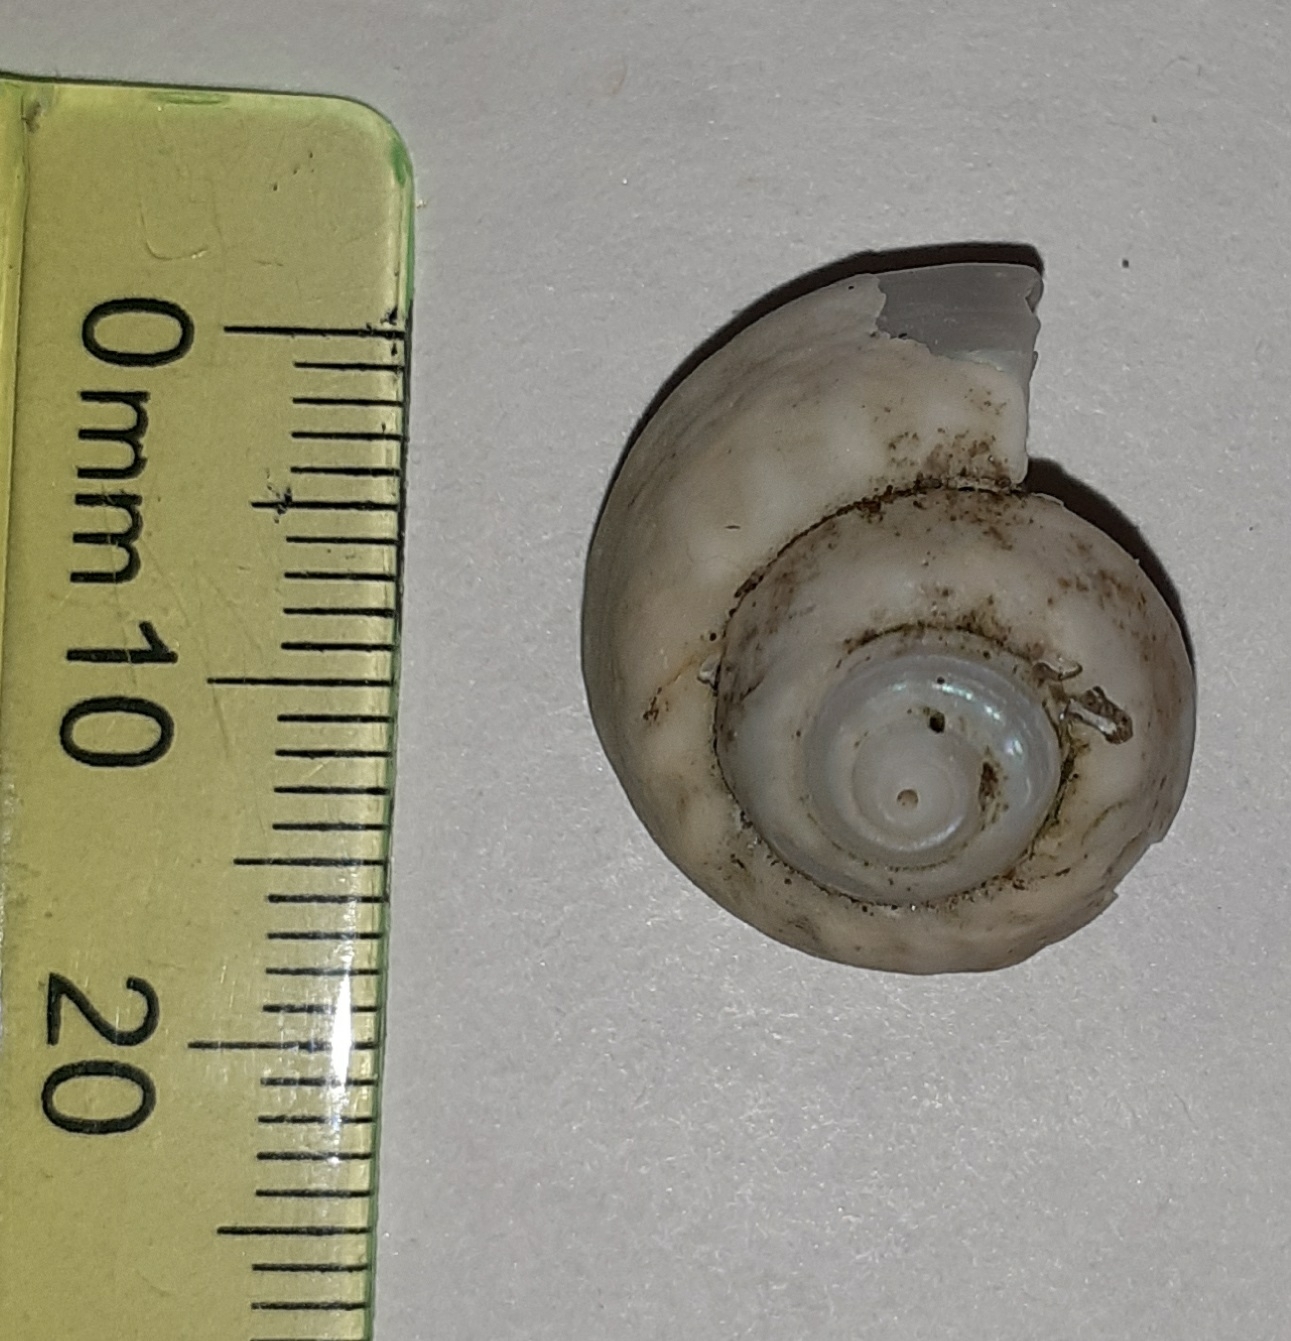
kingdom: Animalia
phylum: Mollusca
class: Gastropoda
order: Trochida
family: Trochidae
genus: Gibbula
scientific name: Gibbula magus
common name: Turban top shell
